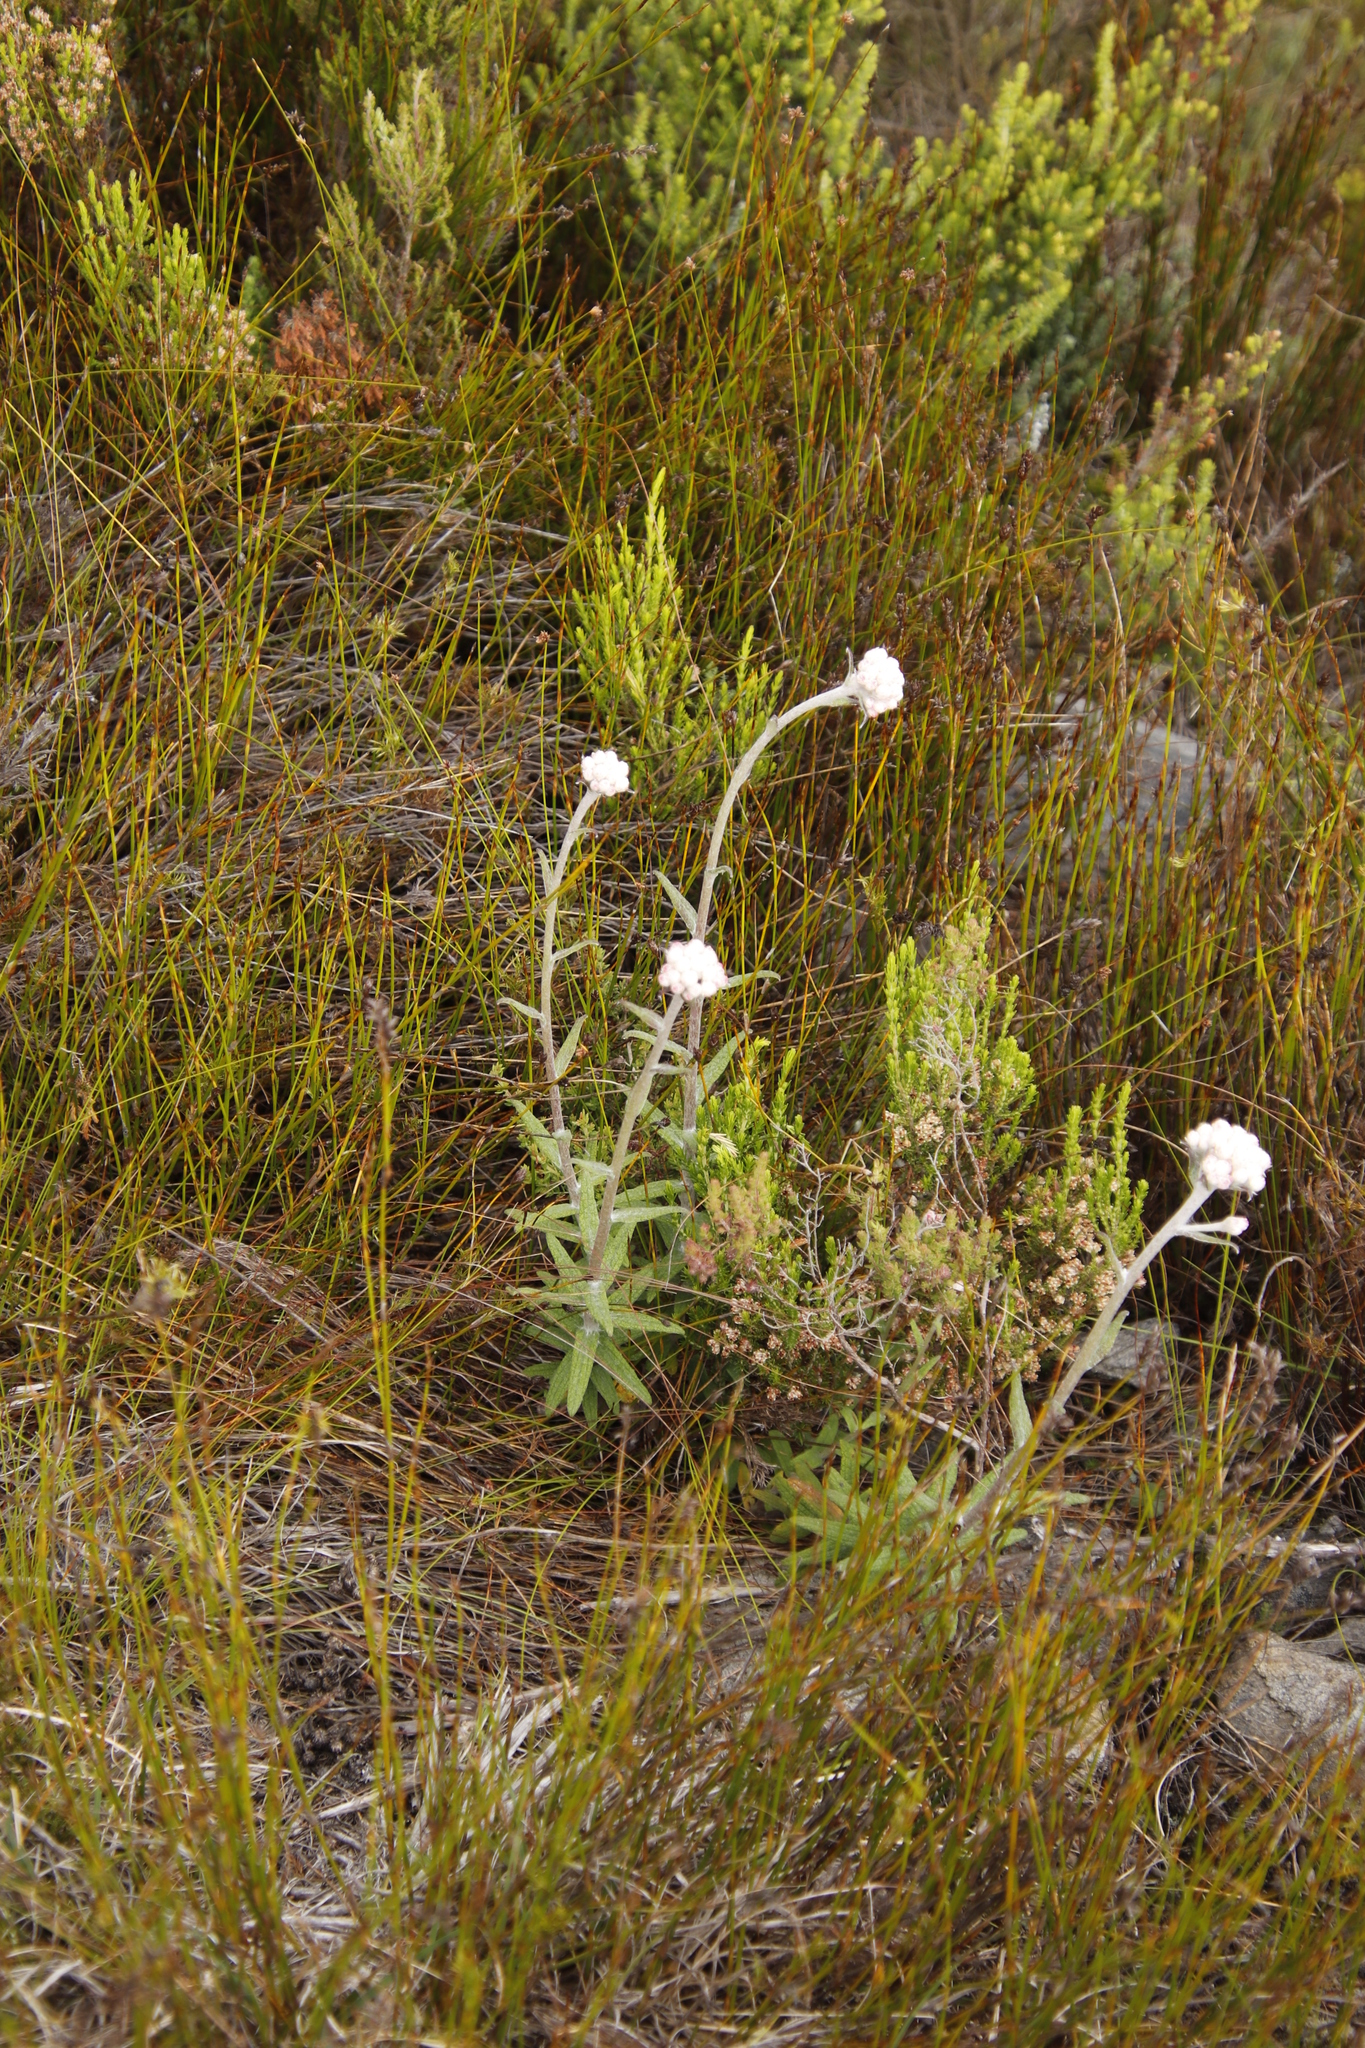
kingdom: Plantae
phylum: Tracheophyta
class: Magnoliopsida
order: Asterales
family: Asteraceae
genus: Helichrysum
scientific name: Helichrysum felinum
